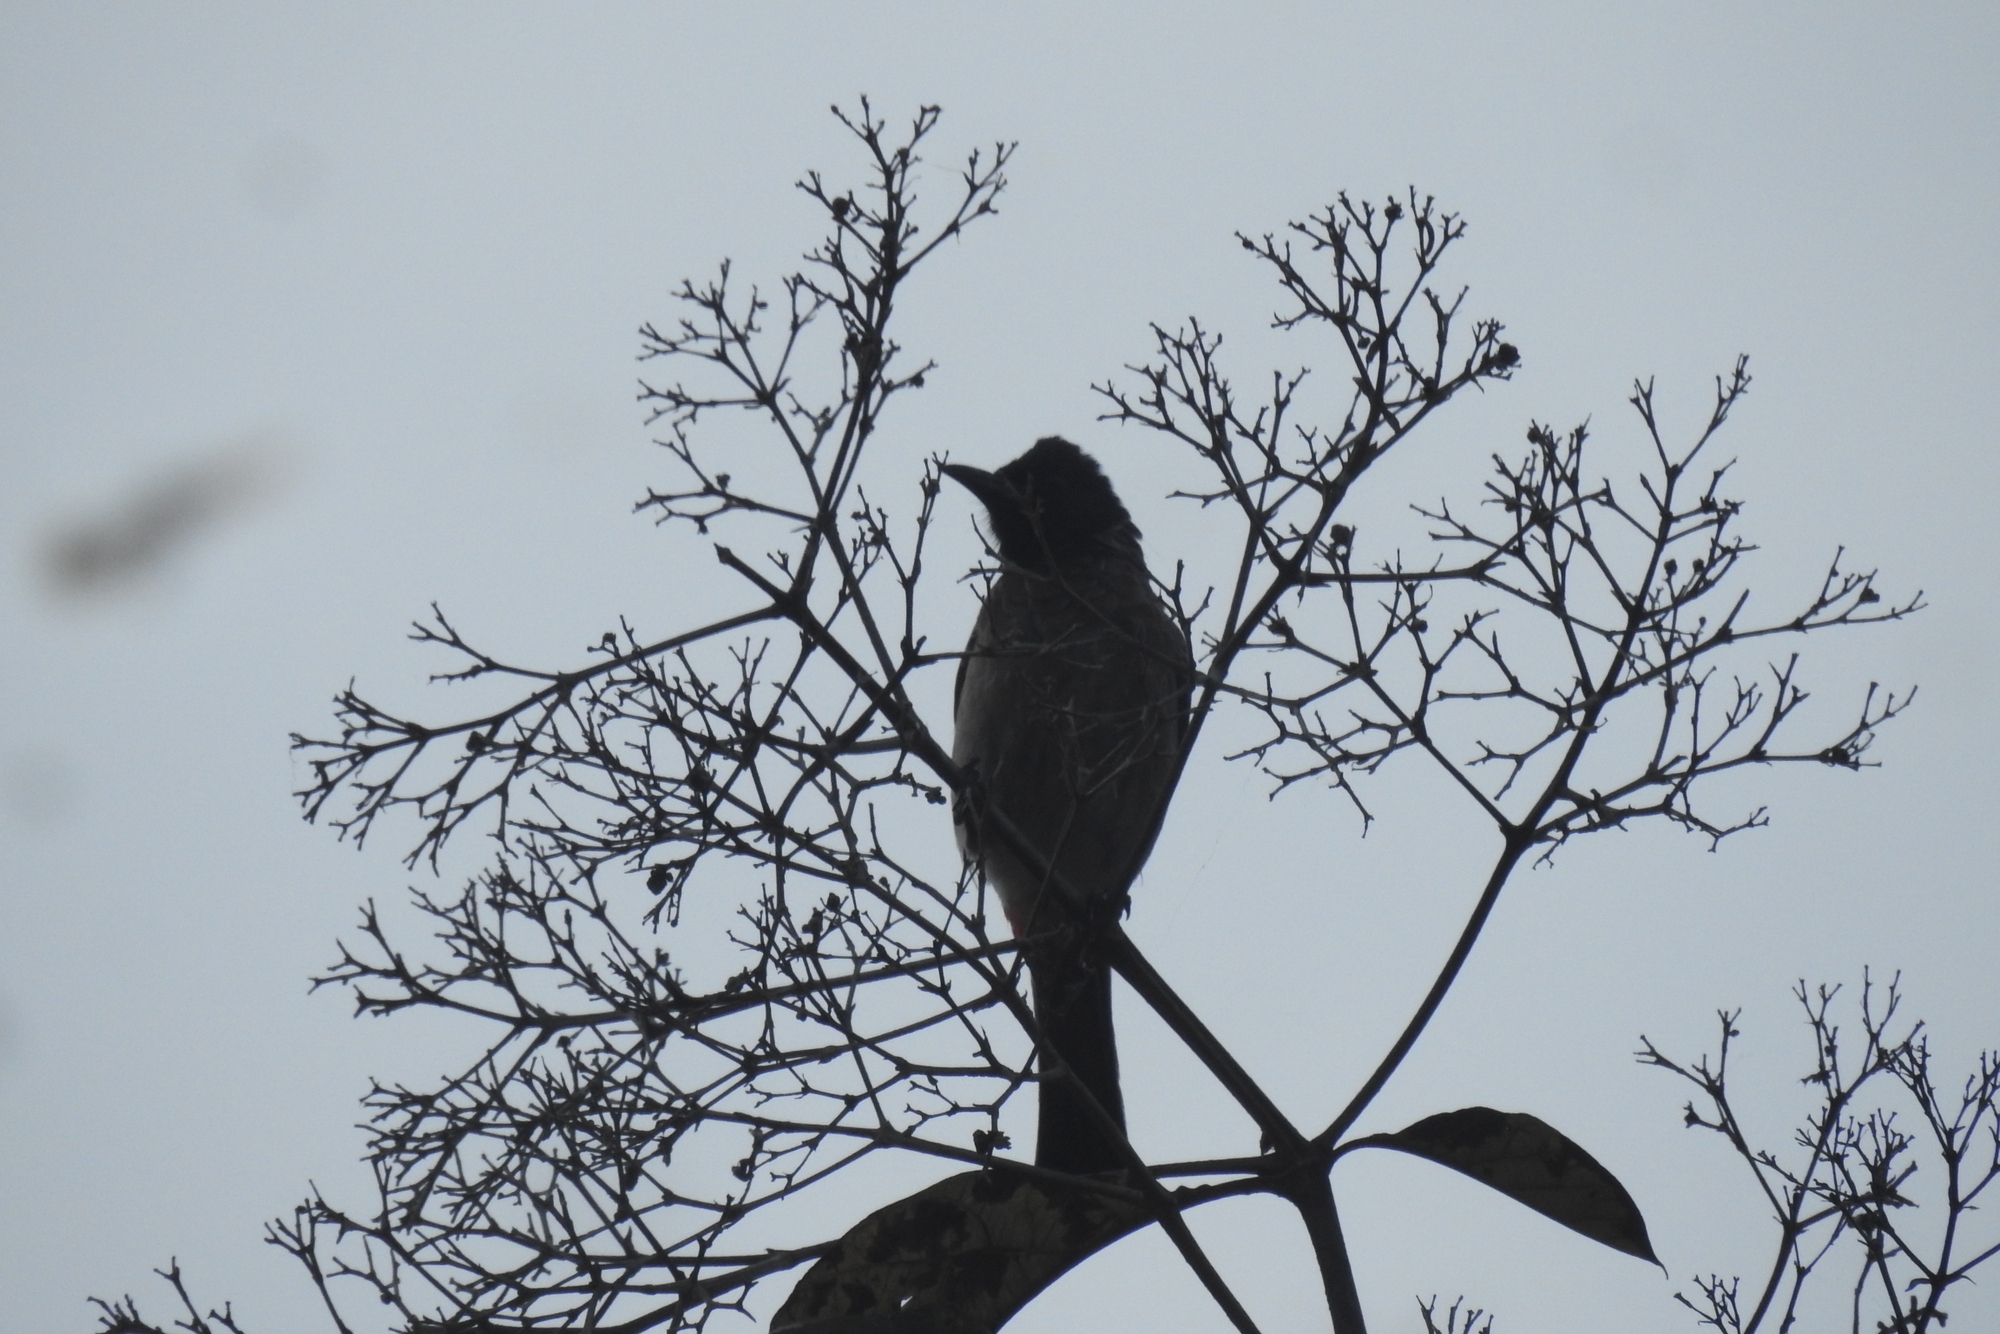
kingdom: Animalia
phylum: Chordata
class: Aves
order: Passeriformes
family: Pycnonotidae
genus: Pycnonotus
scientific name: Pycnonotus cafer
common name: Red-vented bulbul
